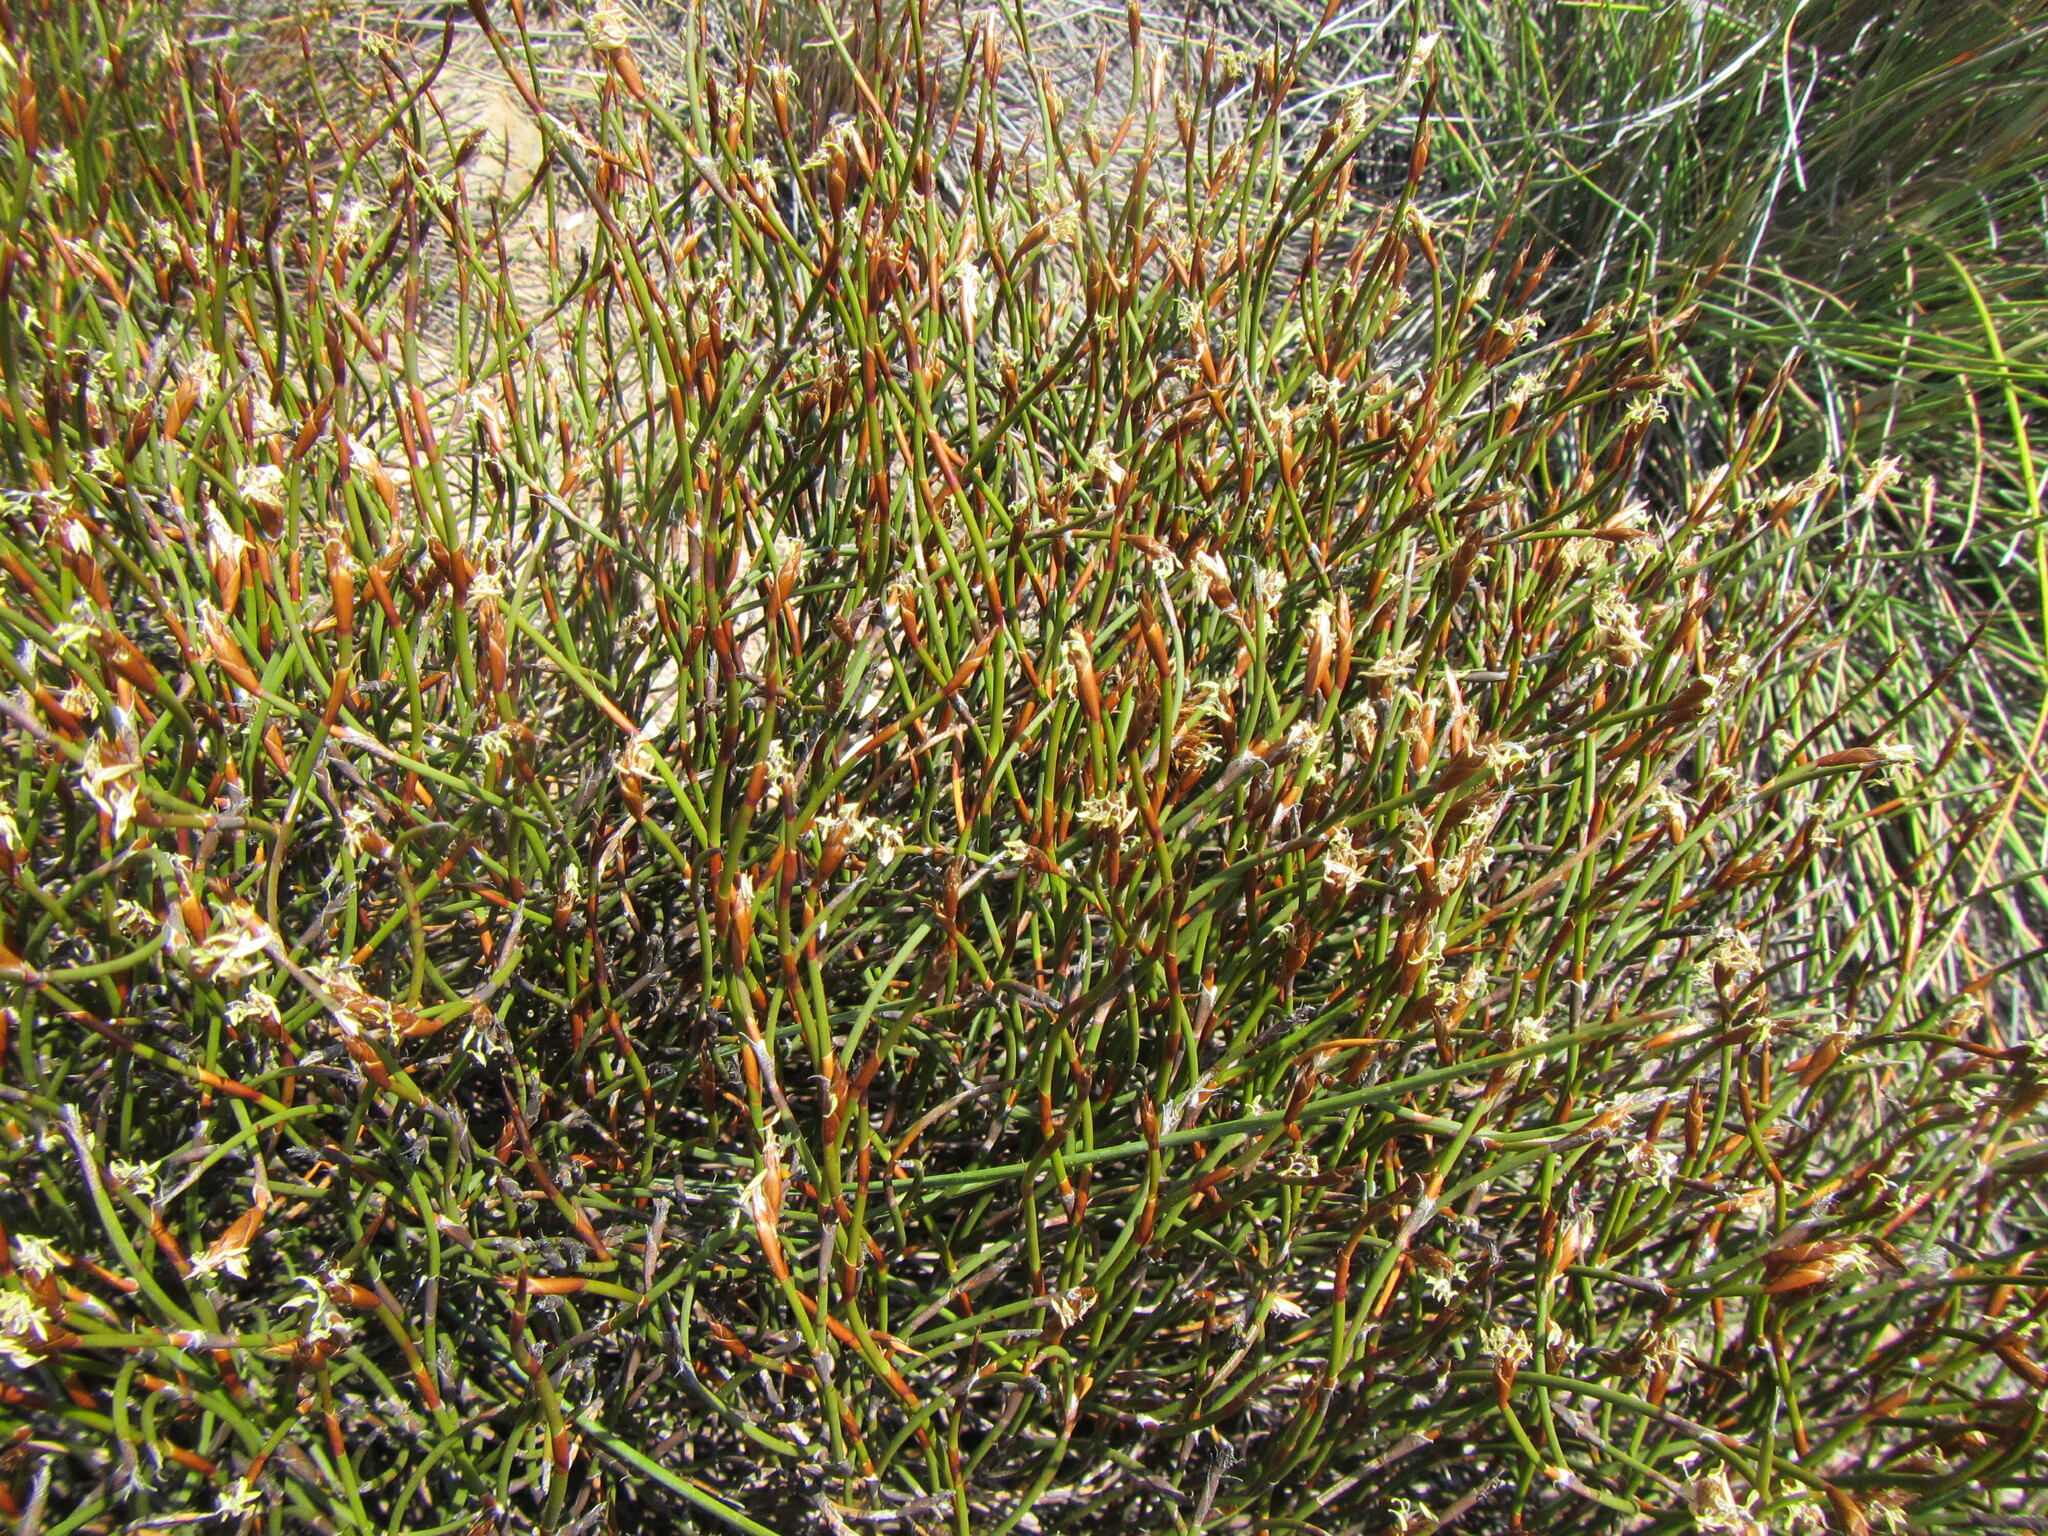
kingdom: Plantae
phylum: Tracheophyta
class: Liliopsida
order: Poales
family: Restionaceae
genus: Restio
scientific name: Restio laniger
